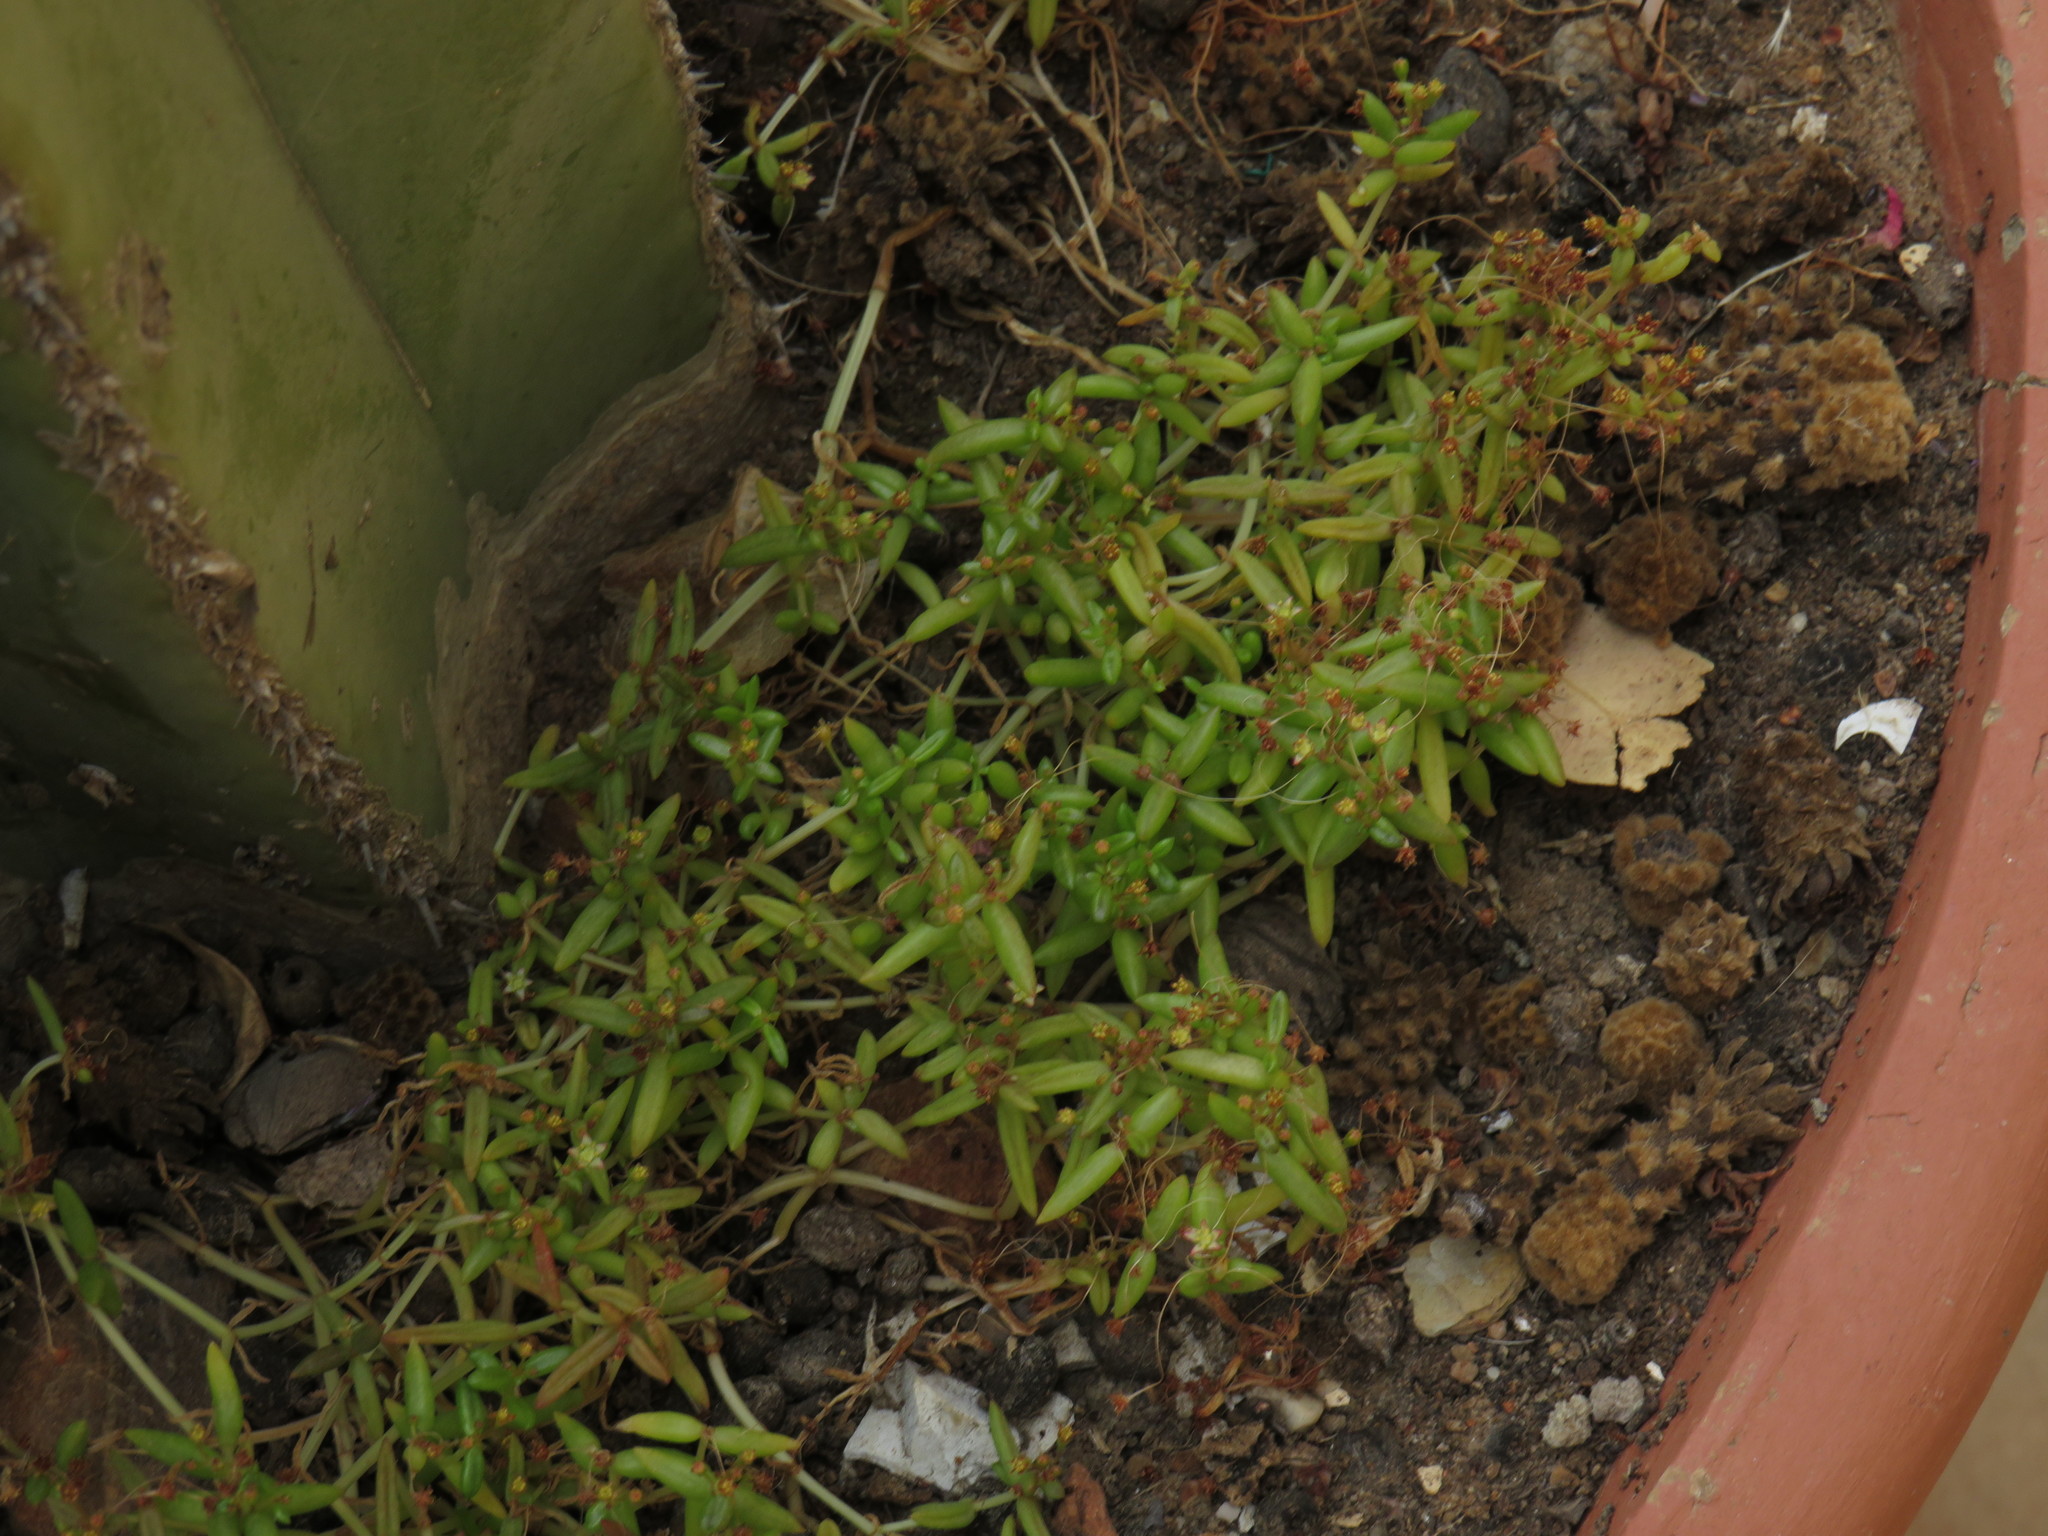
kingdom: Plantae
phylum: Tracheophyta
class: Magnoliopsida
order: Saxifragales
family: Crassulaceae
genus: Crassula
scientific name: Crassula expansa
